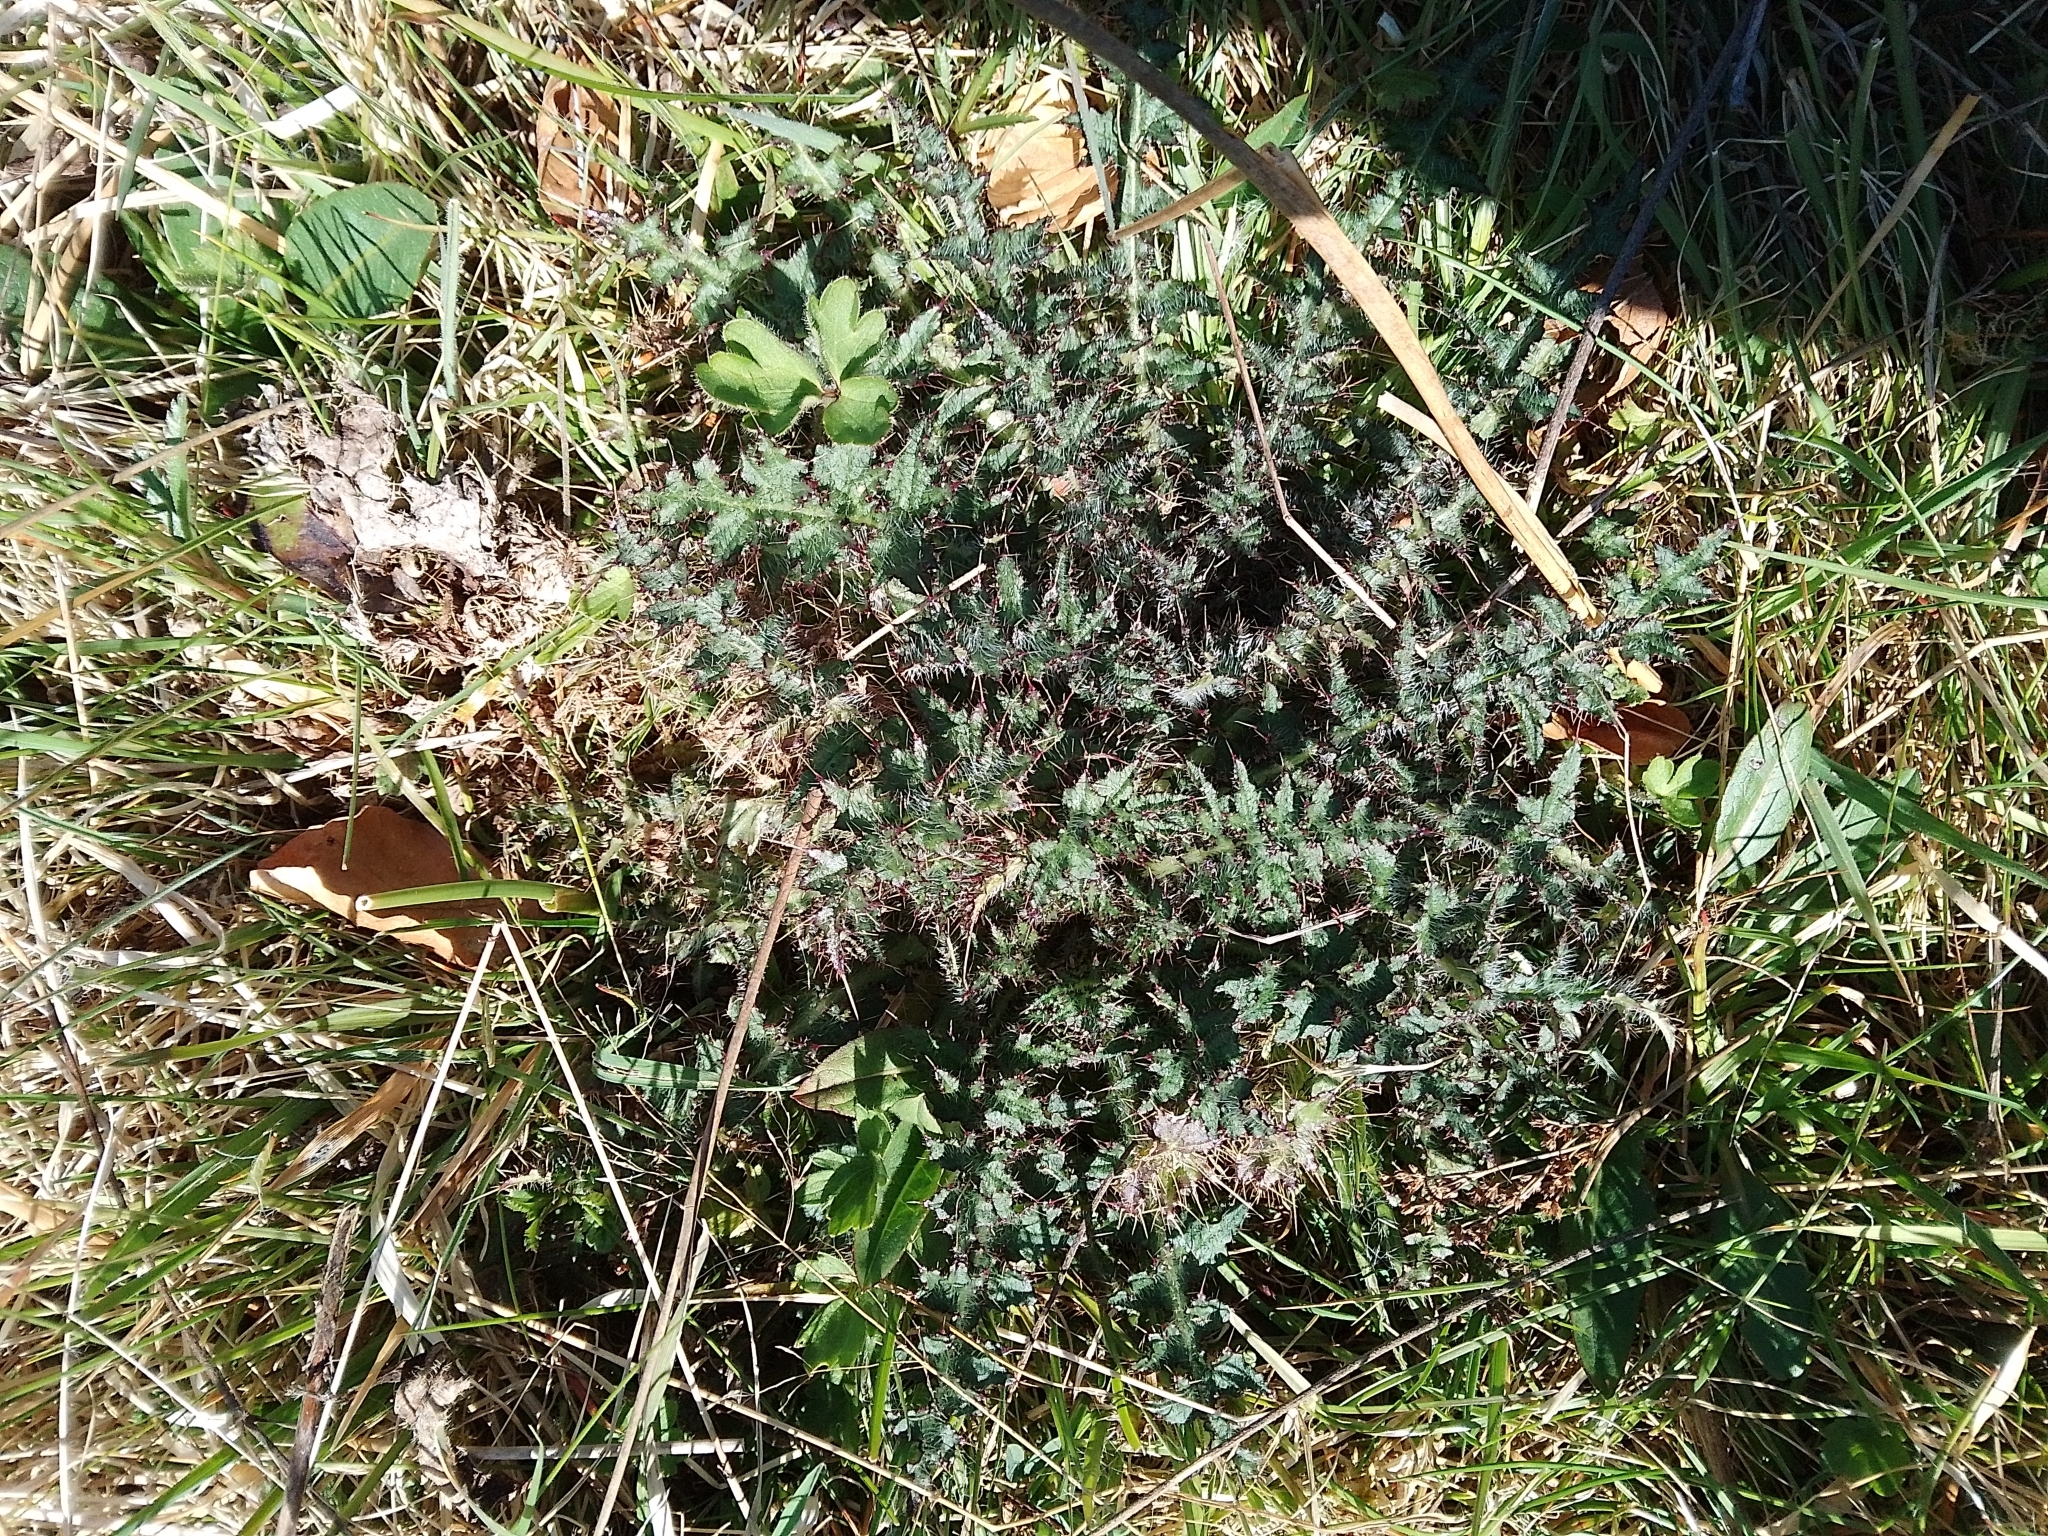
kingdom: Plantae
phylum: Tracheophyta
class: Magnoliopsida
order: Asterales
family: Asteraceae
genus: Cirsium
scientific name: Cirsium palustre
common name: Marsh thistle
